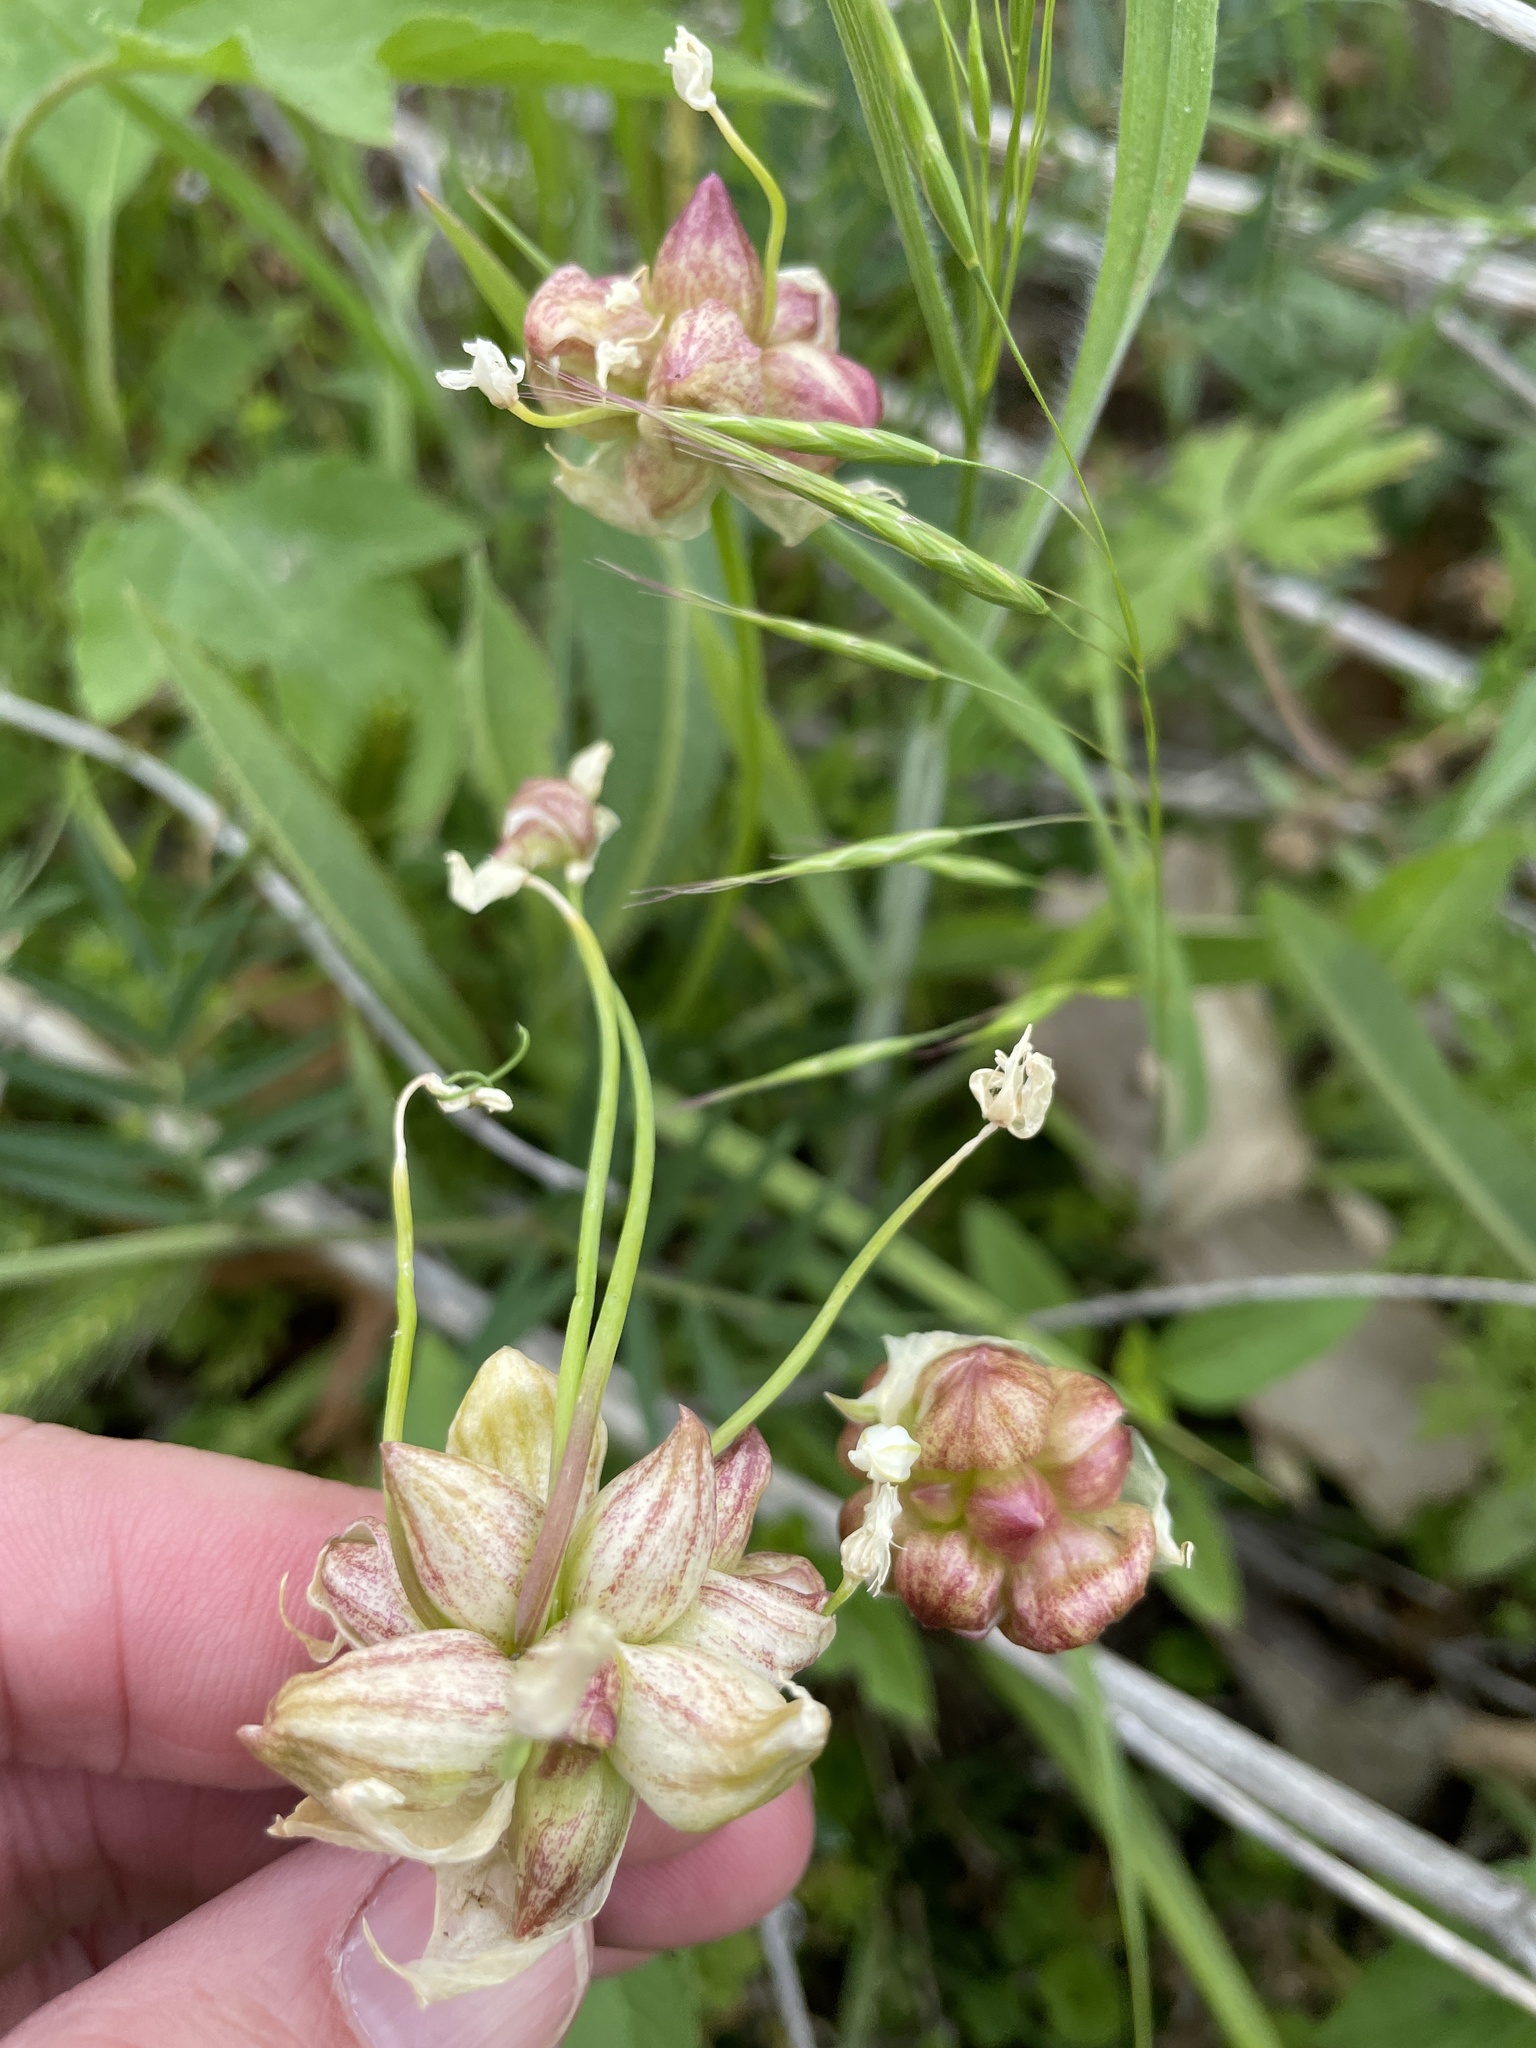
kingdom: Plantae
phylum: Tracheophyta
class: Liliopsida
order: Asparagales
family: Amaryllidaceae
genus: Allium
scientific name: Allium canadense
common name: Meadow garlic
